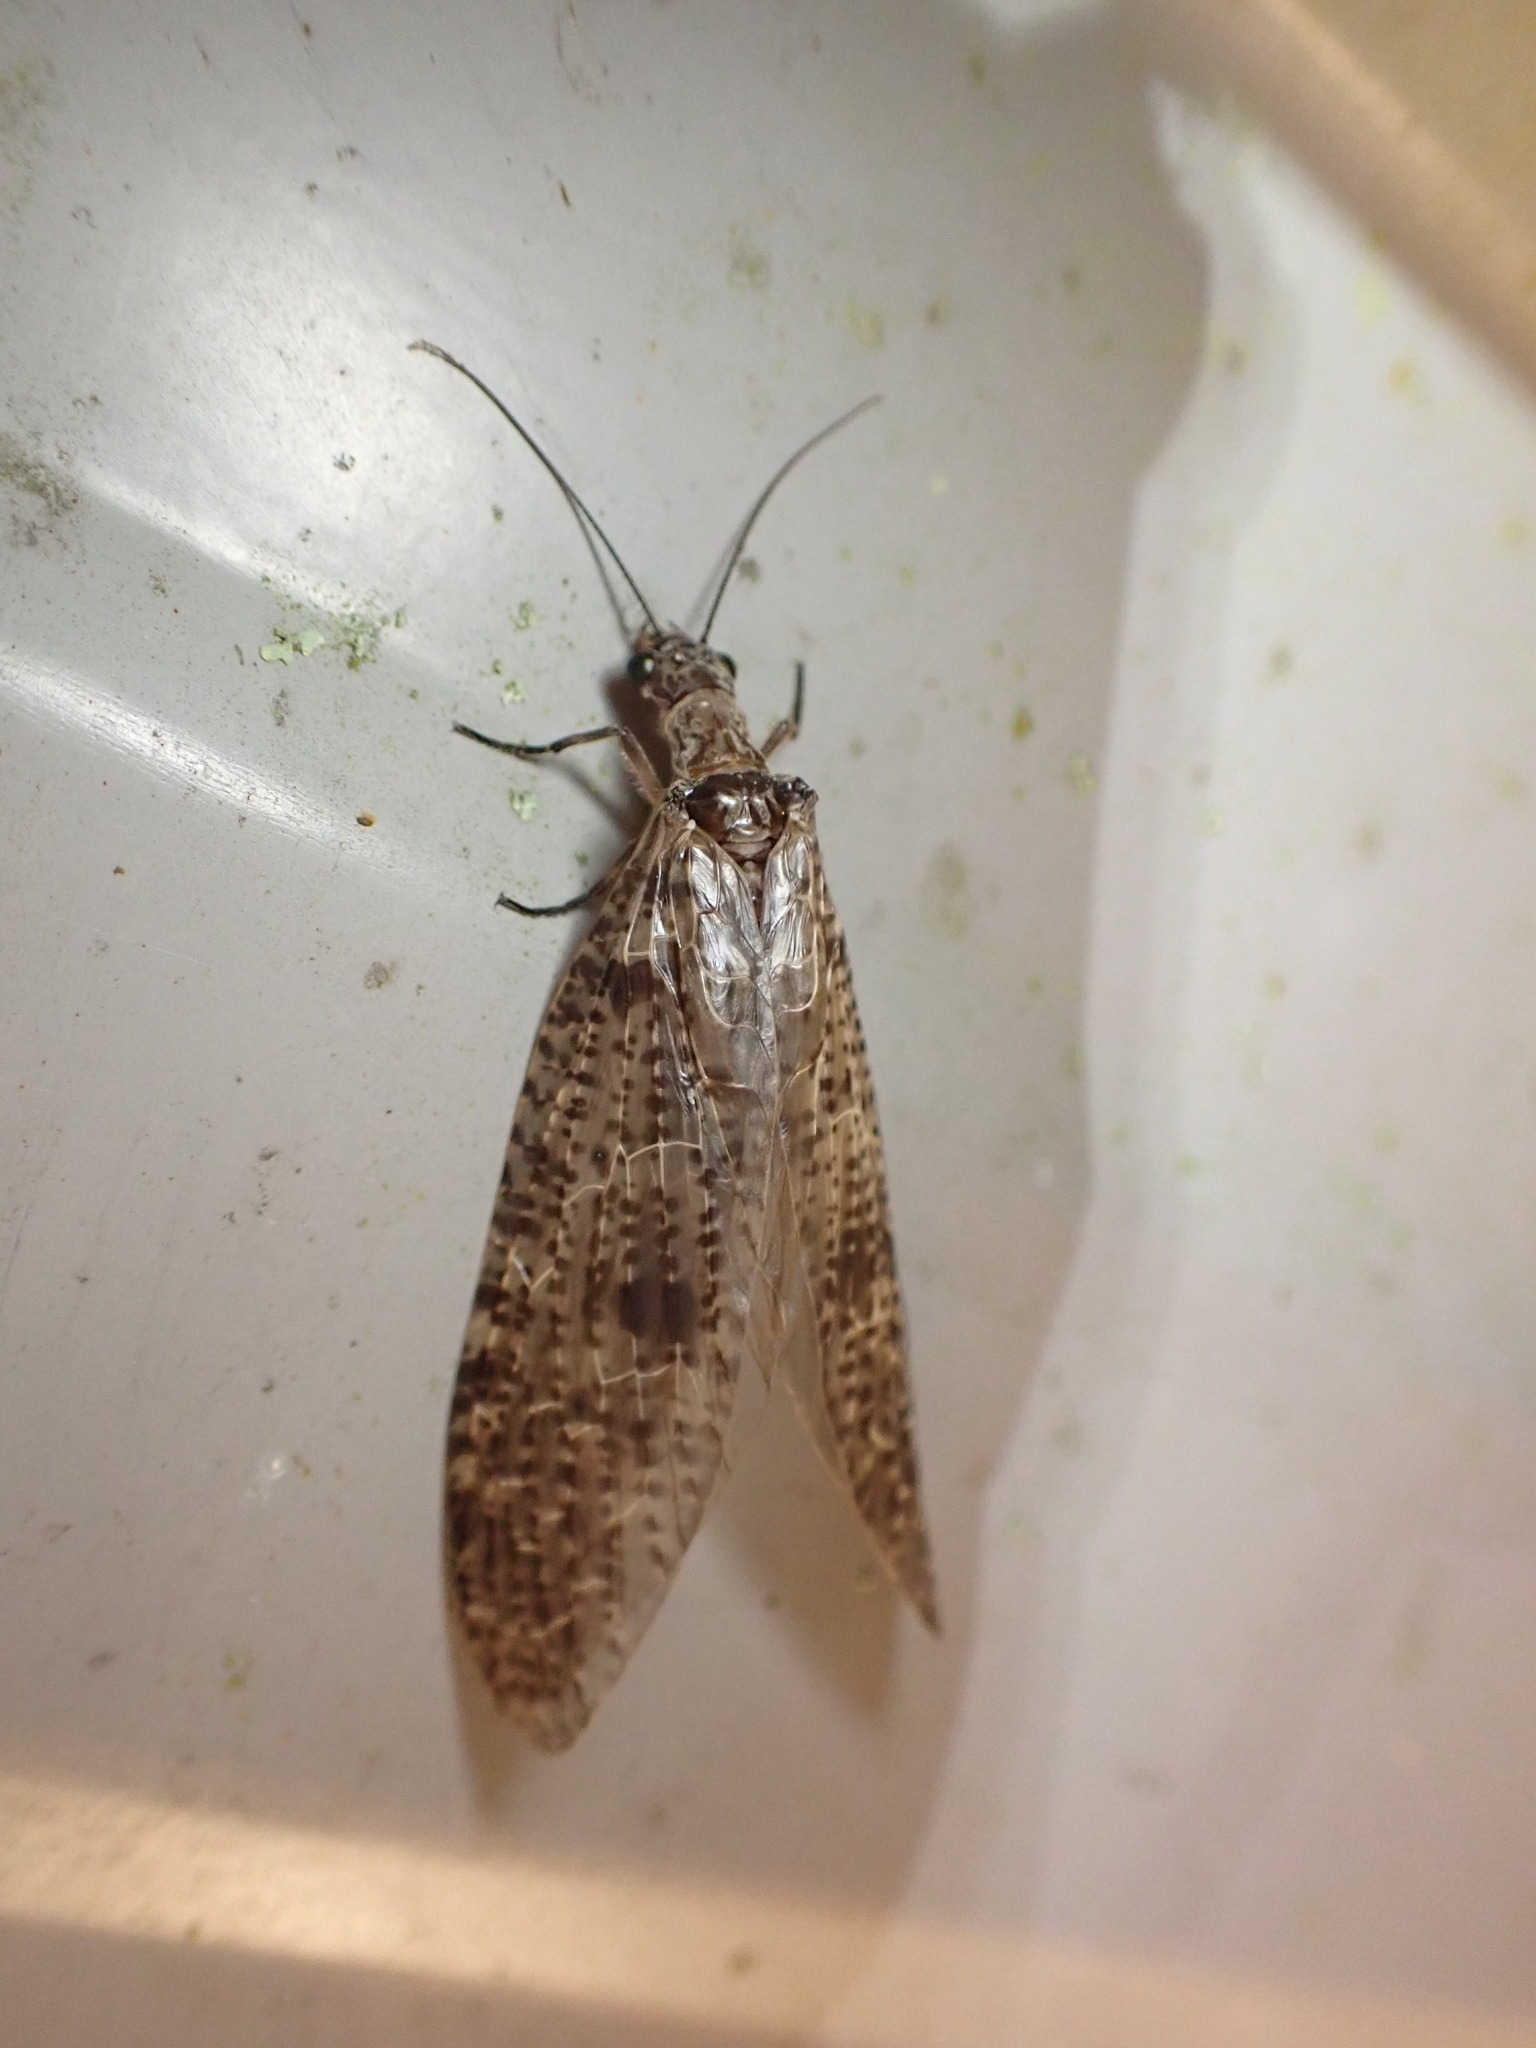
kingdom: Animalia
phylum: Arthropoda
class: Insecta
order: Megaloptera
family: Corydalidae
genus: Archichauliodes
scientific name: Archichauliodes diversus
